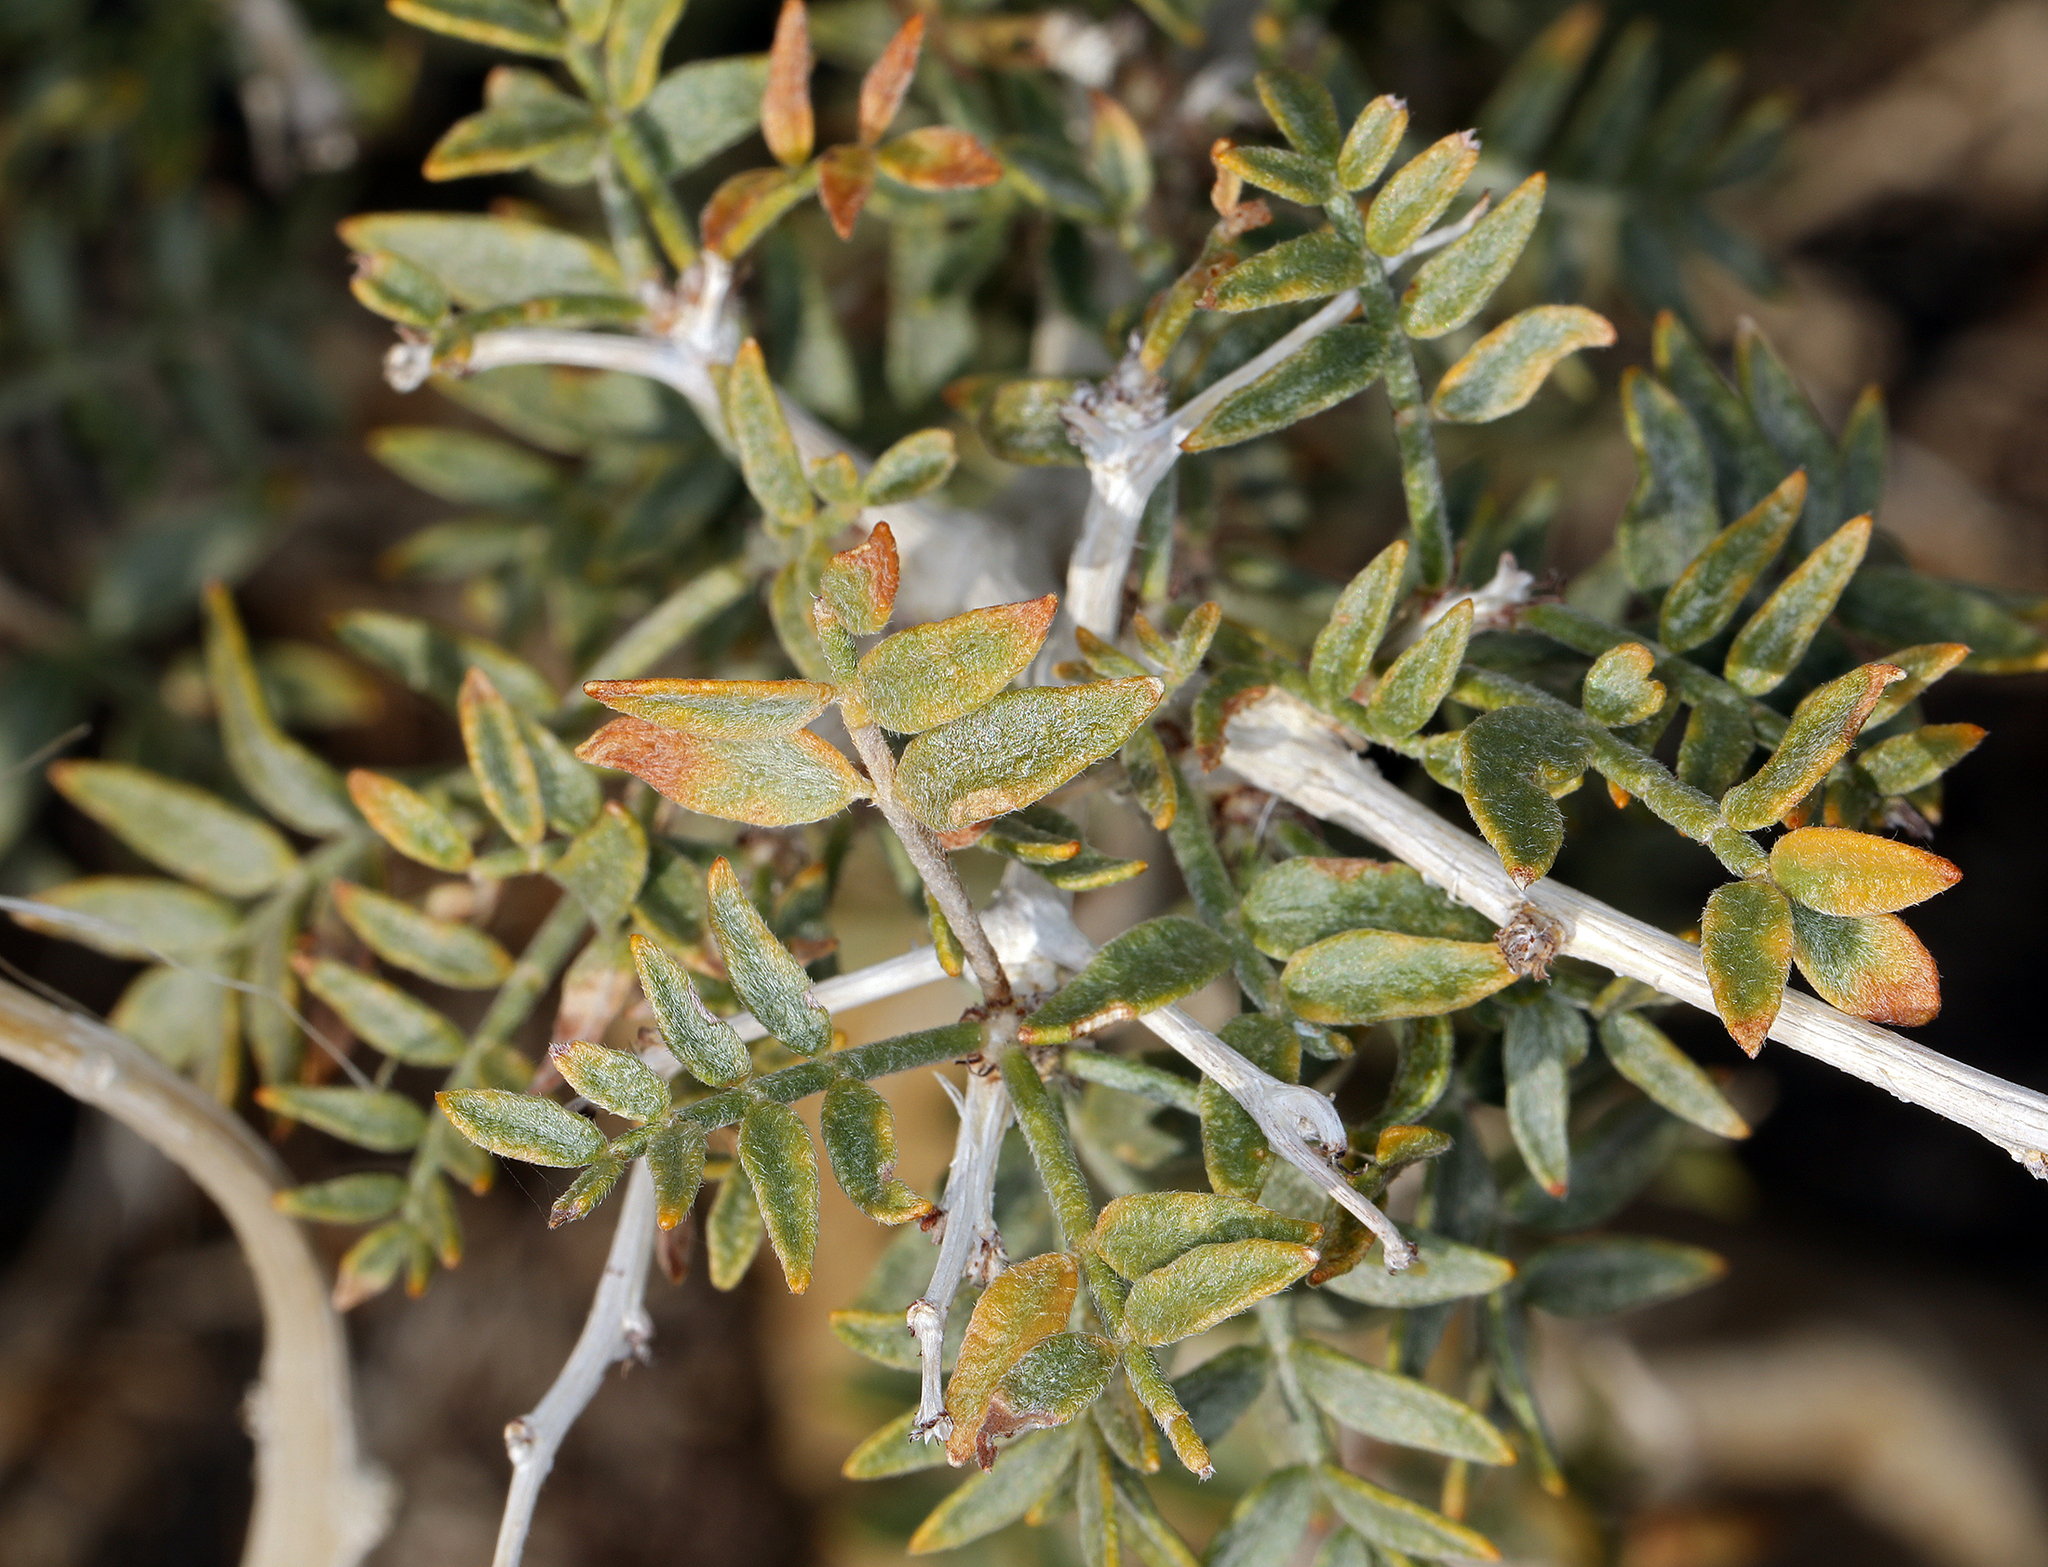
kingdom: Plantae
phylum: Tracheophyta
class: Magnoliopsida
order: Fabales
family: Fabaceae
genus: Psorothamnus
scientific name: Psorothamnus arborescens
